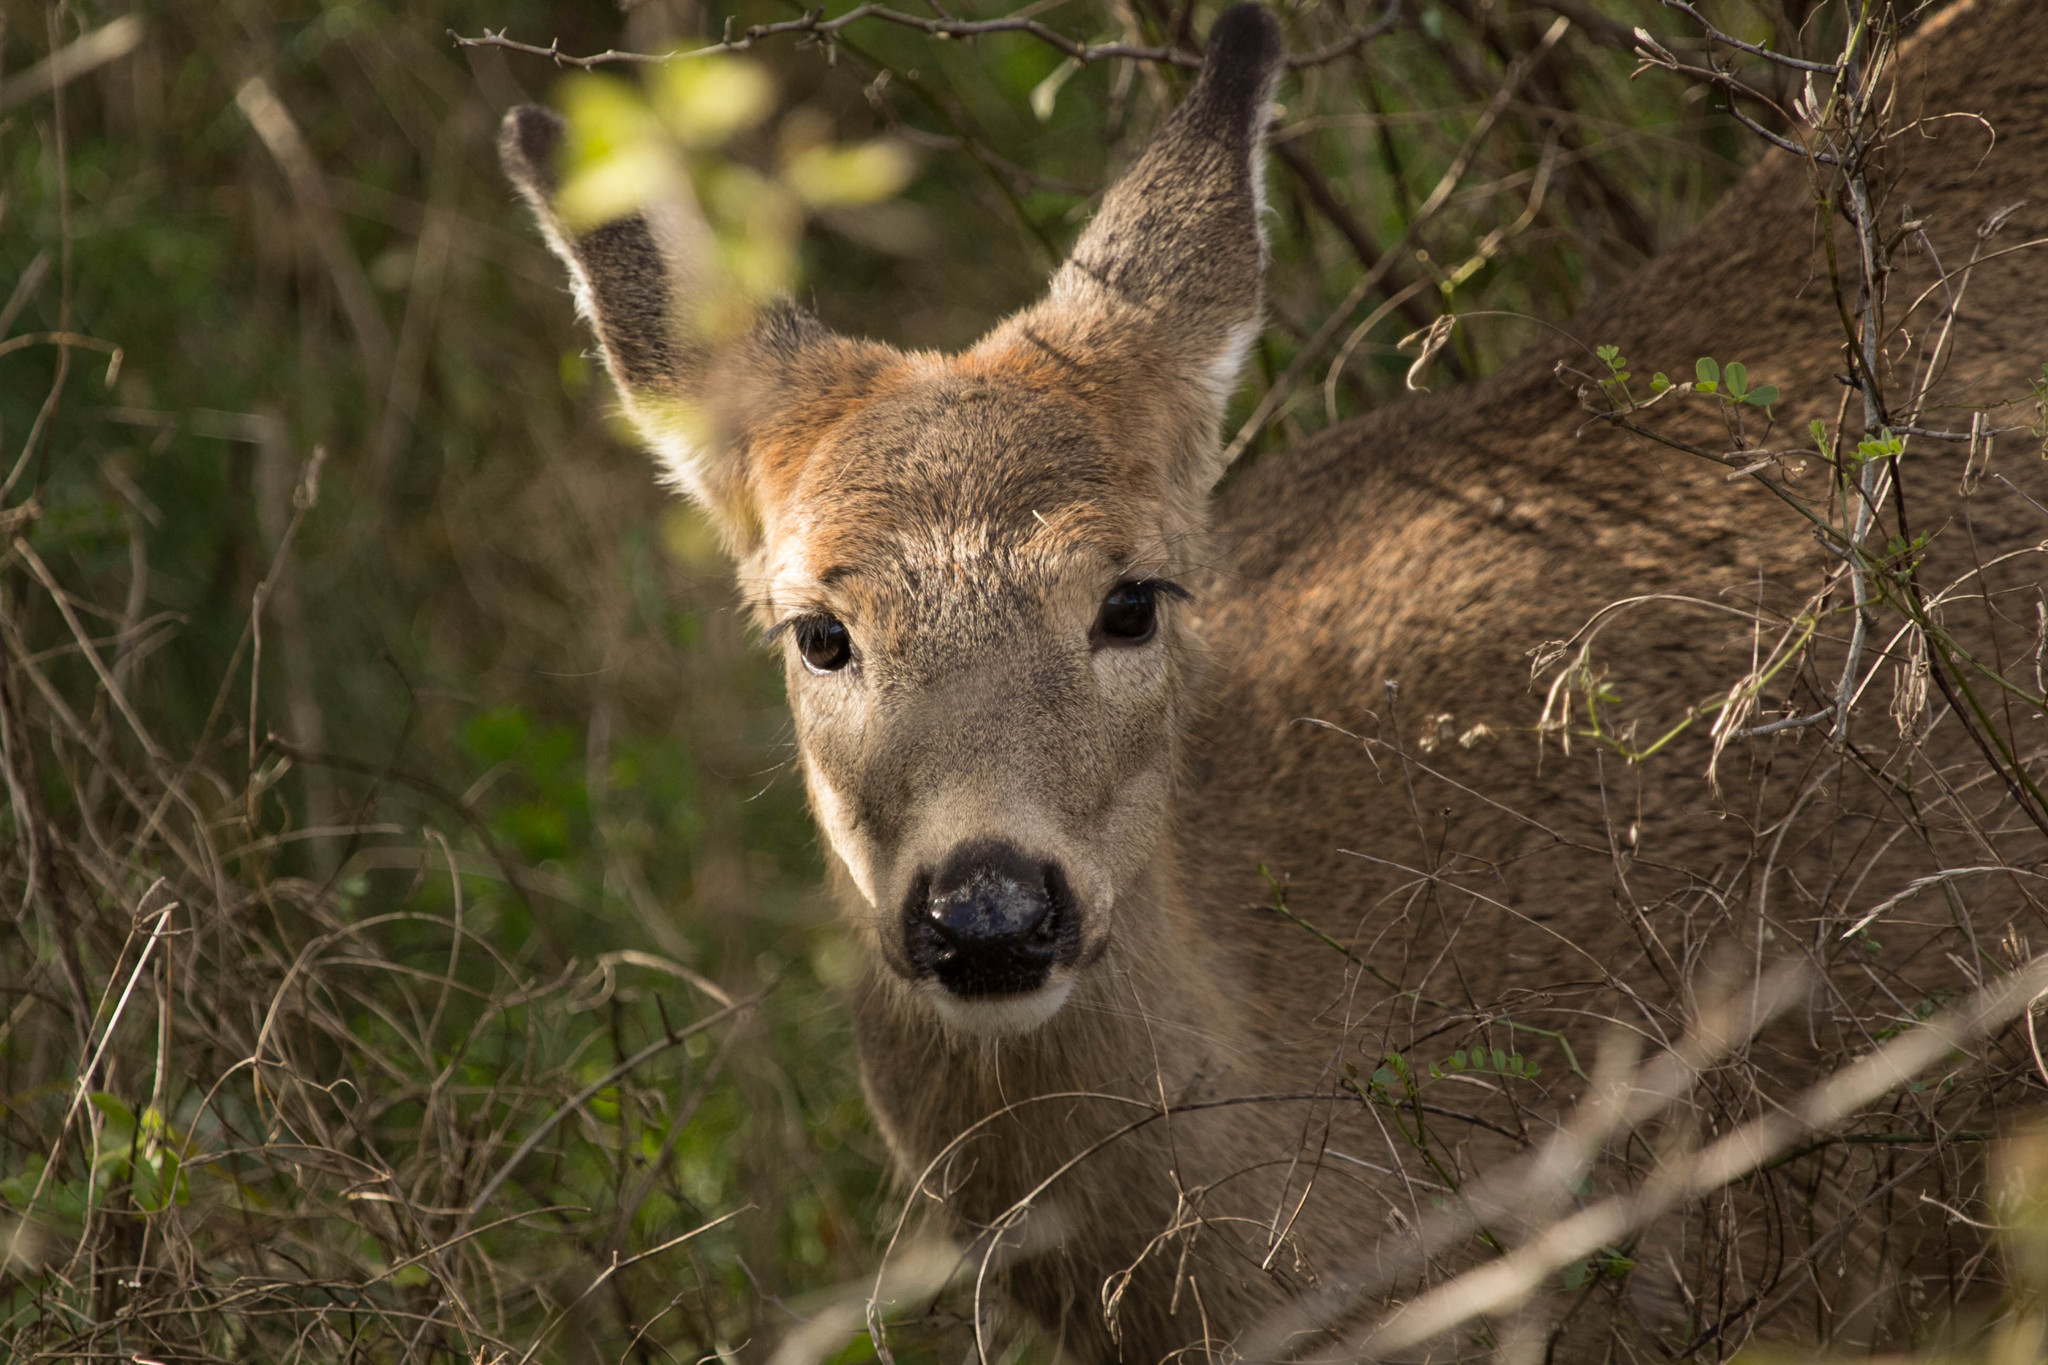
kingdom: Animalia
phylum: Chordata
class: Mammalia
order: Artiodactyla
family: Cervidae
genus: Odocoileus
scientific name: Odocoileus virginianus
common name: White-tailed deer
